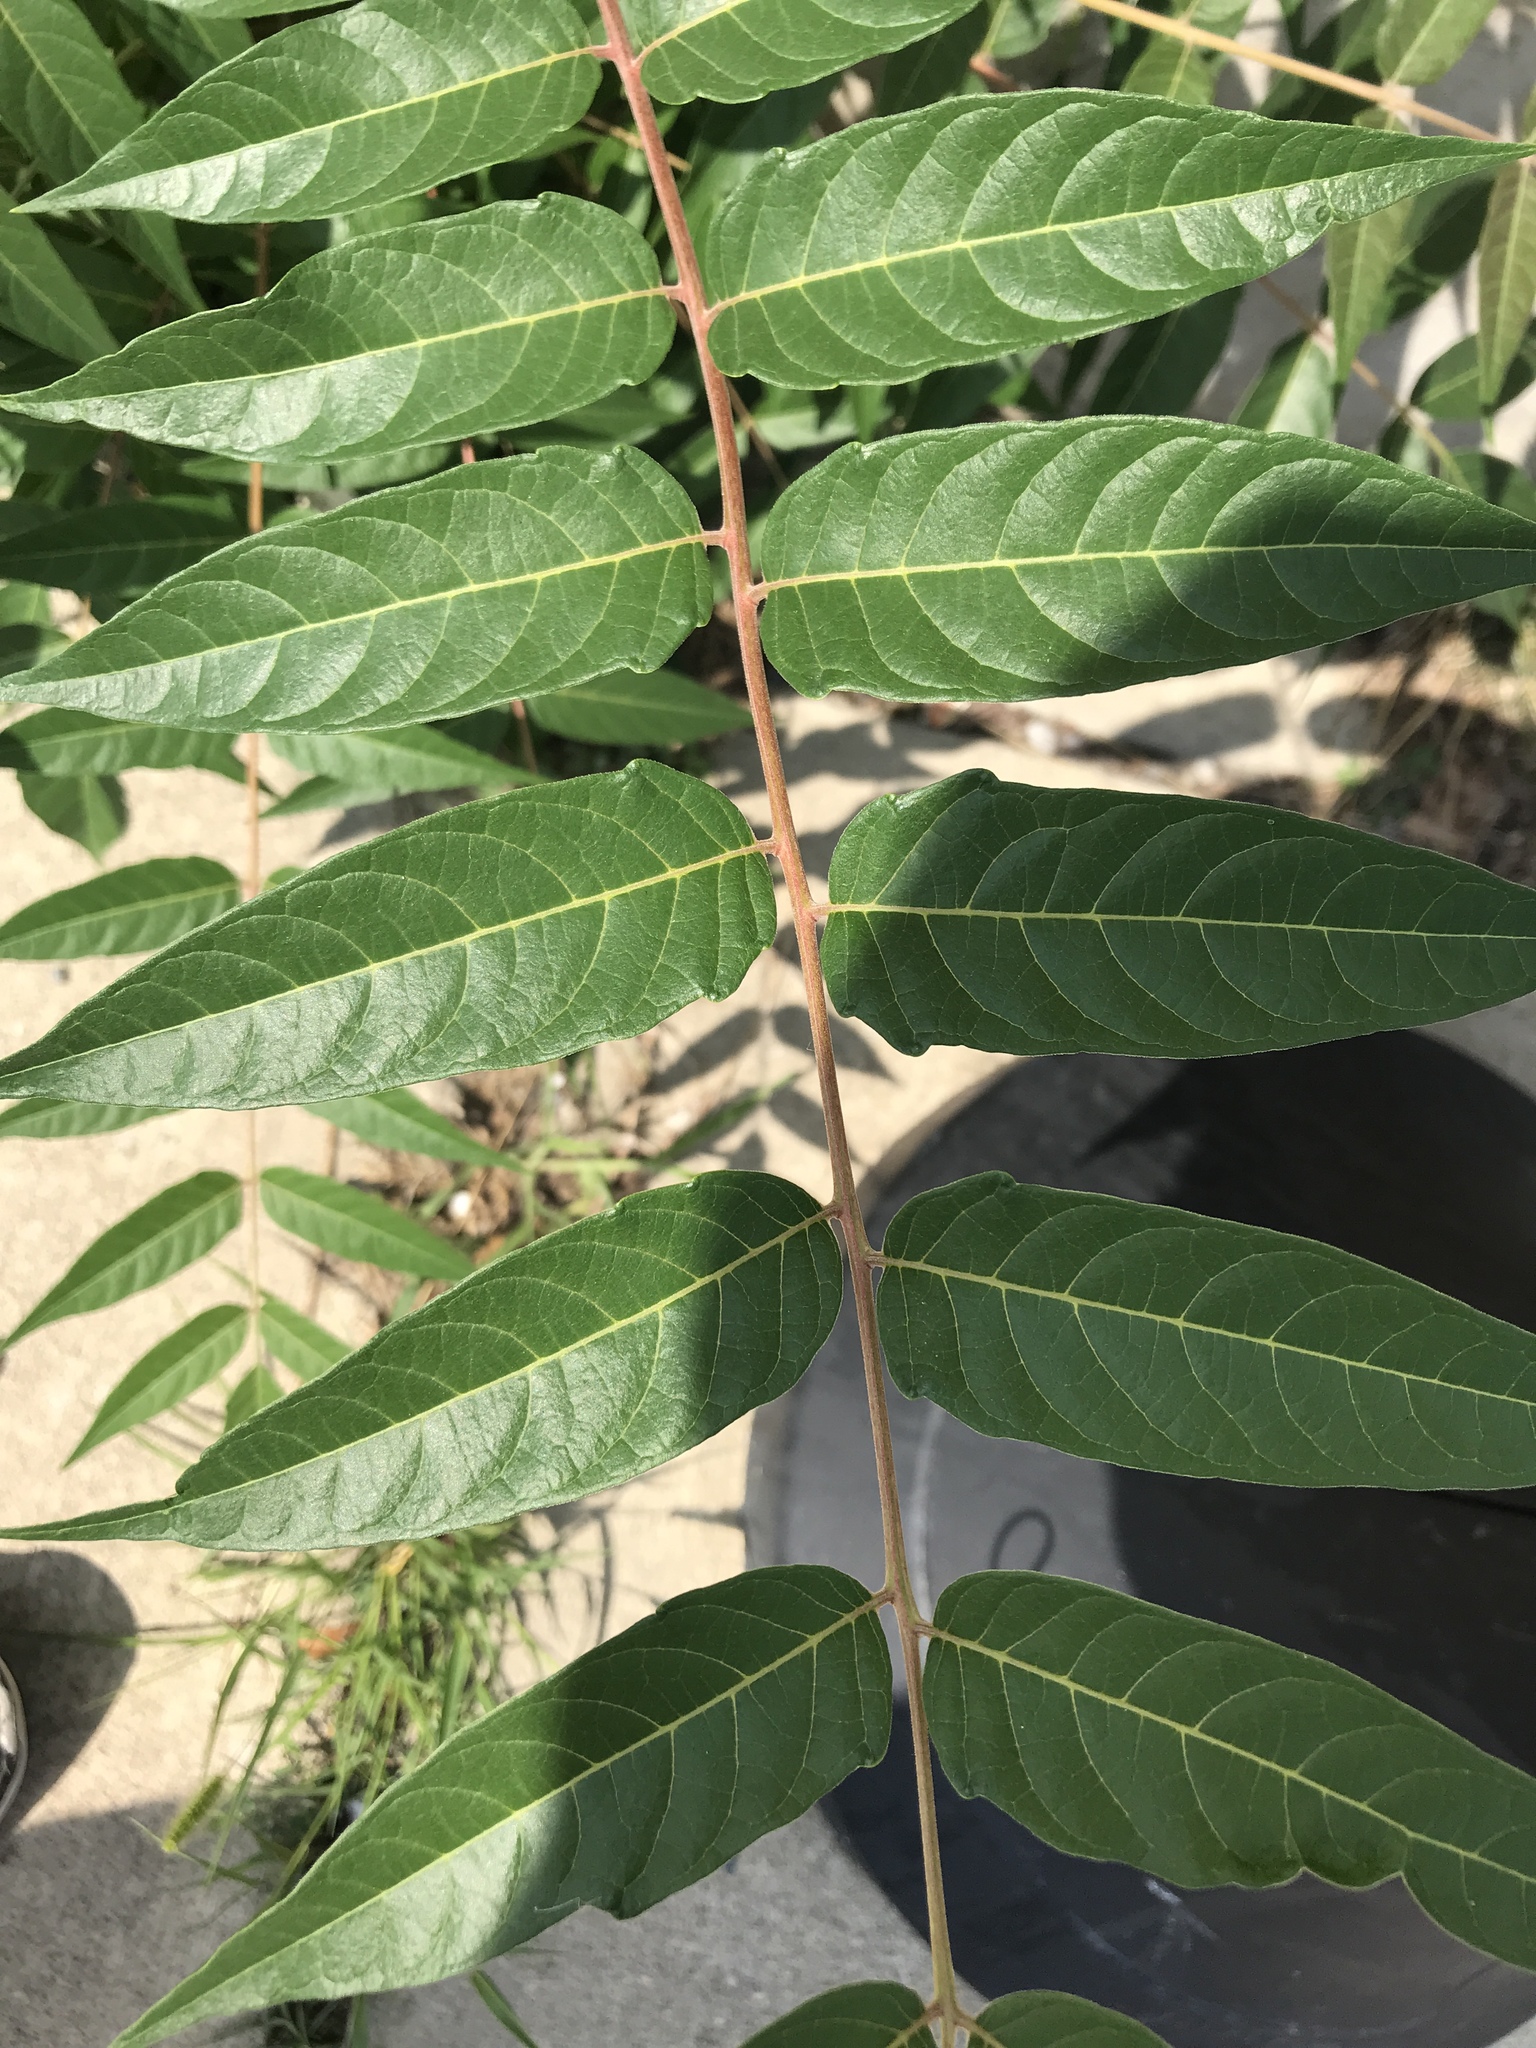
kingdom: Plantae
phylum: Tracheophyta
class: Magnoliopsida
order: Sapindales
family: Simaroubaceae
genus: Ailanthus
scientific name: Ailanthus altissima
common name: Tree-of-heaven
